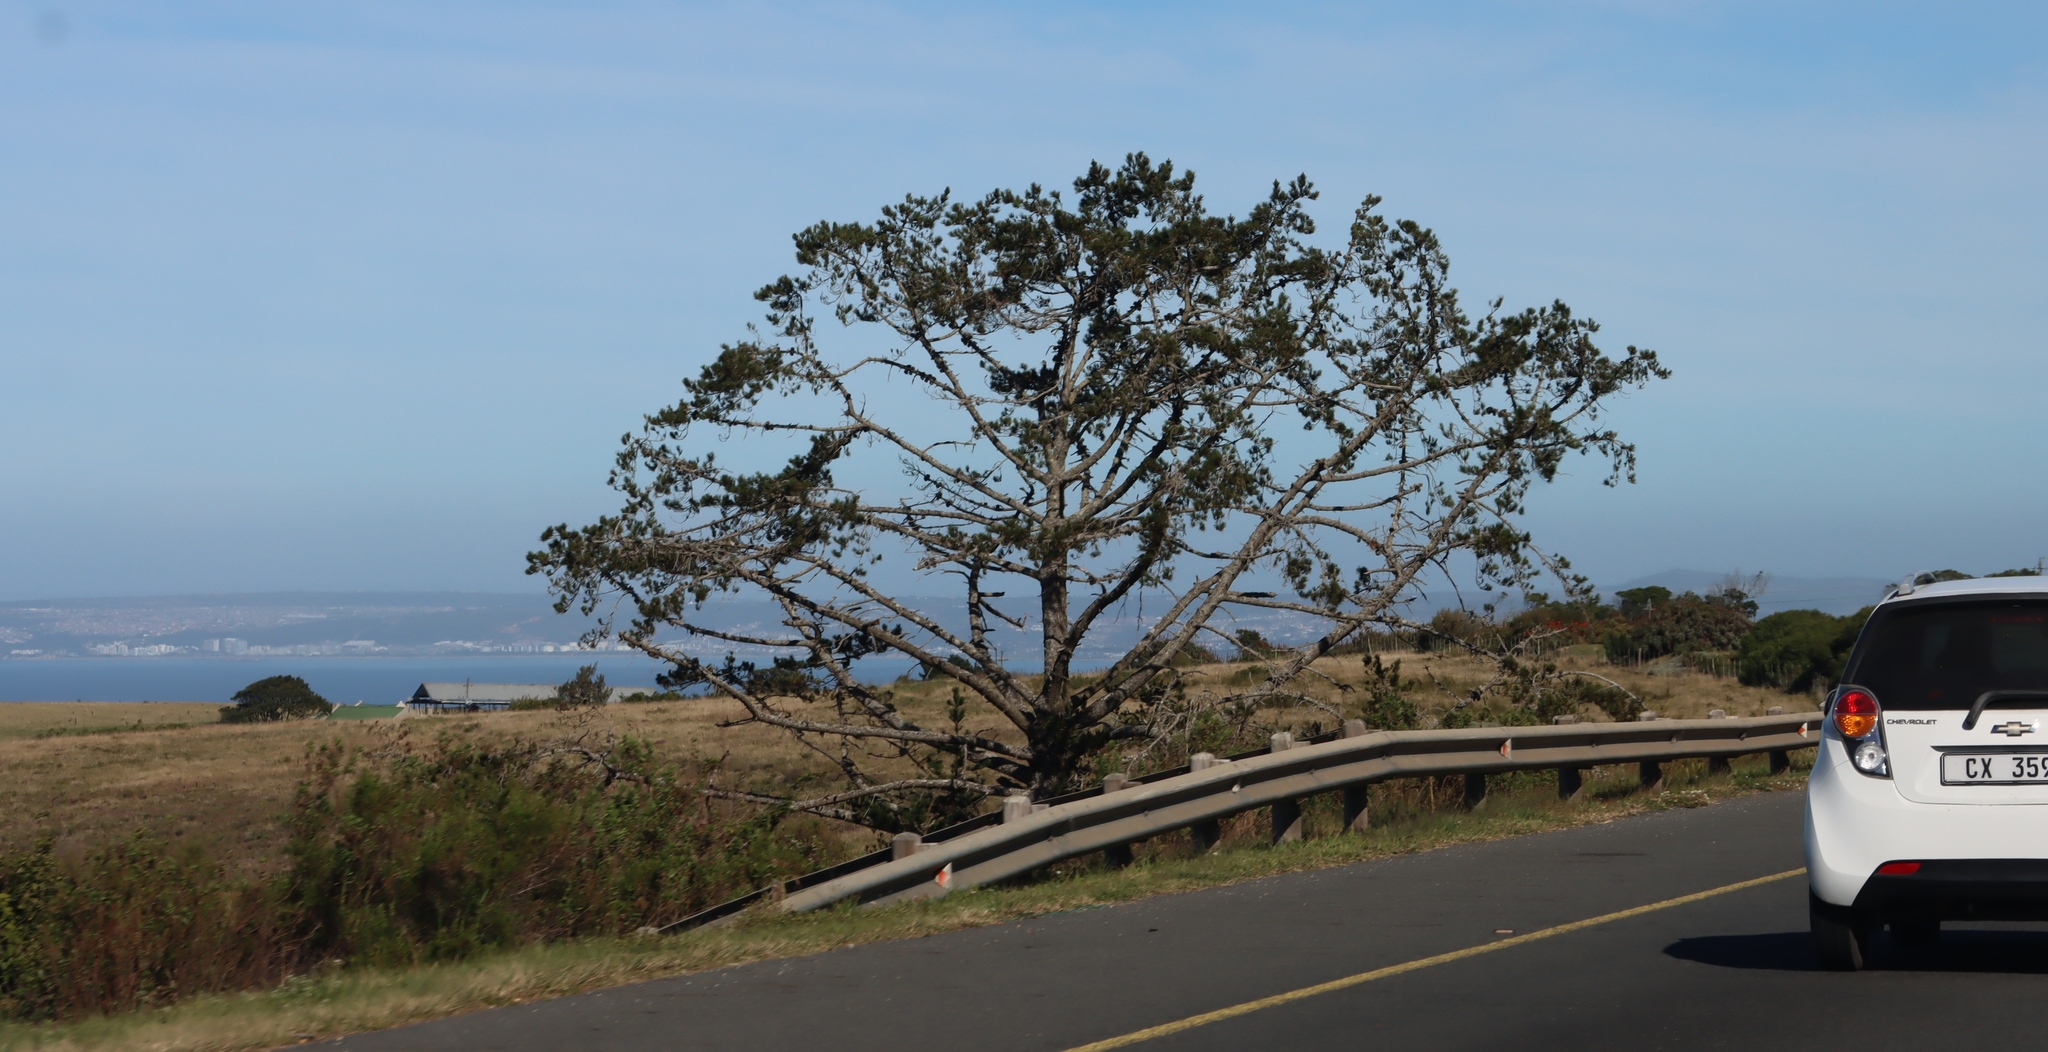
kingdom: Plantae
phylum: Tracheophyta
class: Pinopsida
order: Pinales
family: Pinaceae
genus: Pinus
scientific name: Pinus radiata
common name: Monterey pine
